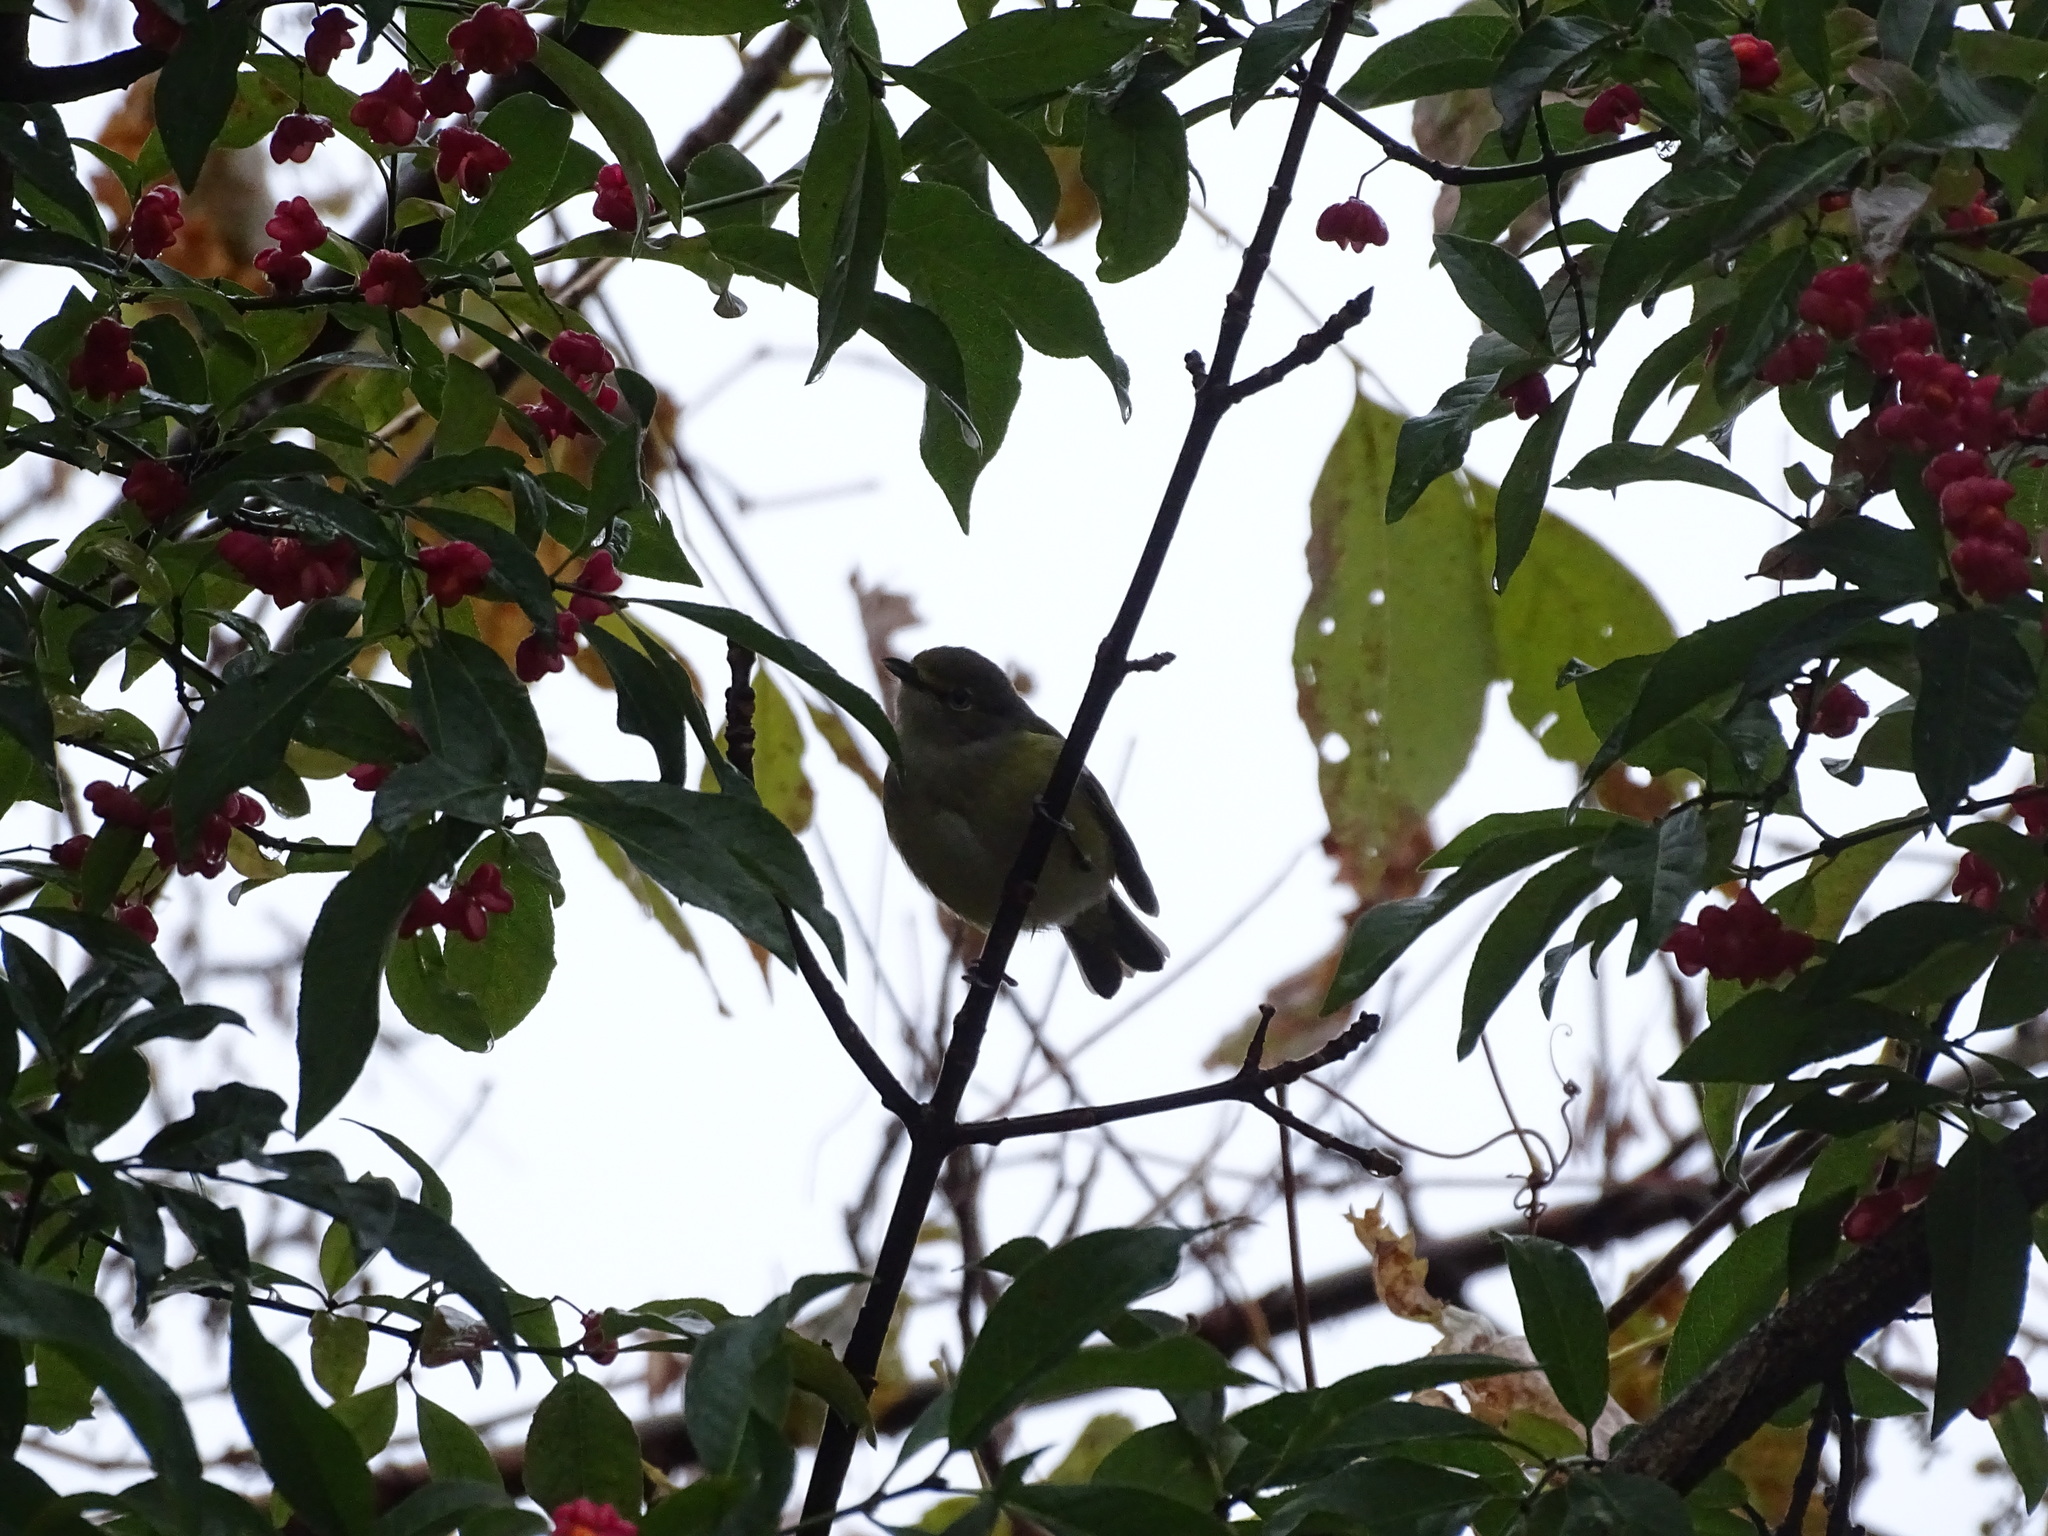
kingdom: Animalia
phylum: Chordata
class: Aves
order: Passeriformes
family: Vireonidae
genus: Vireo
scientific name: Vireo griseus
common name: White-eyed vireo
